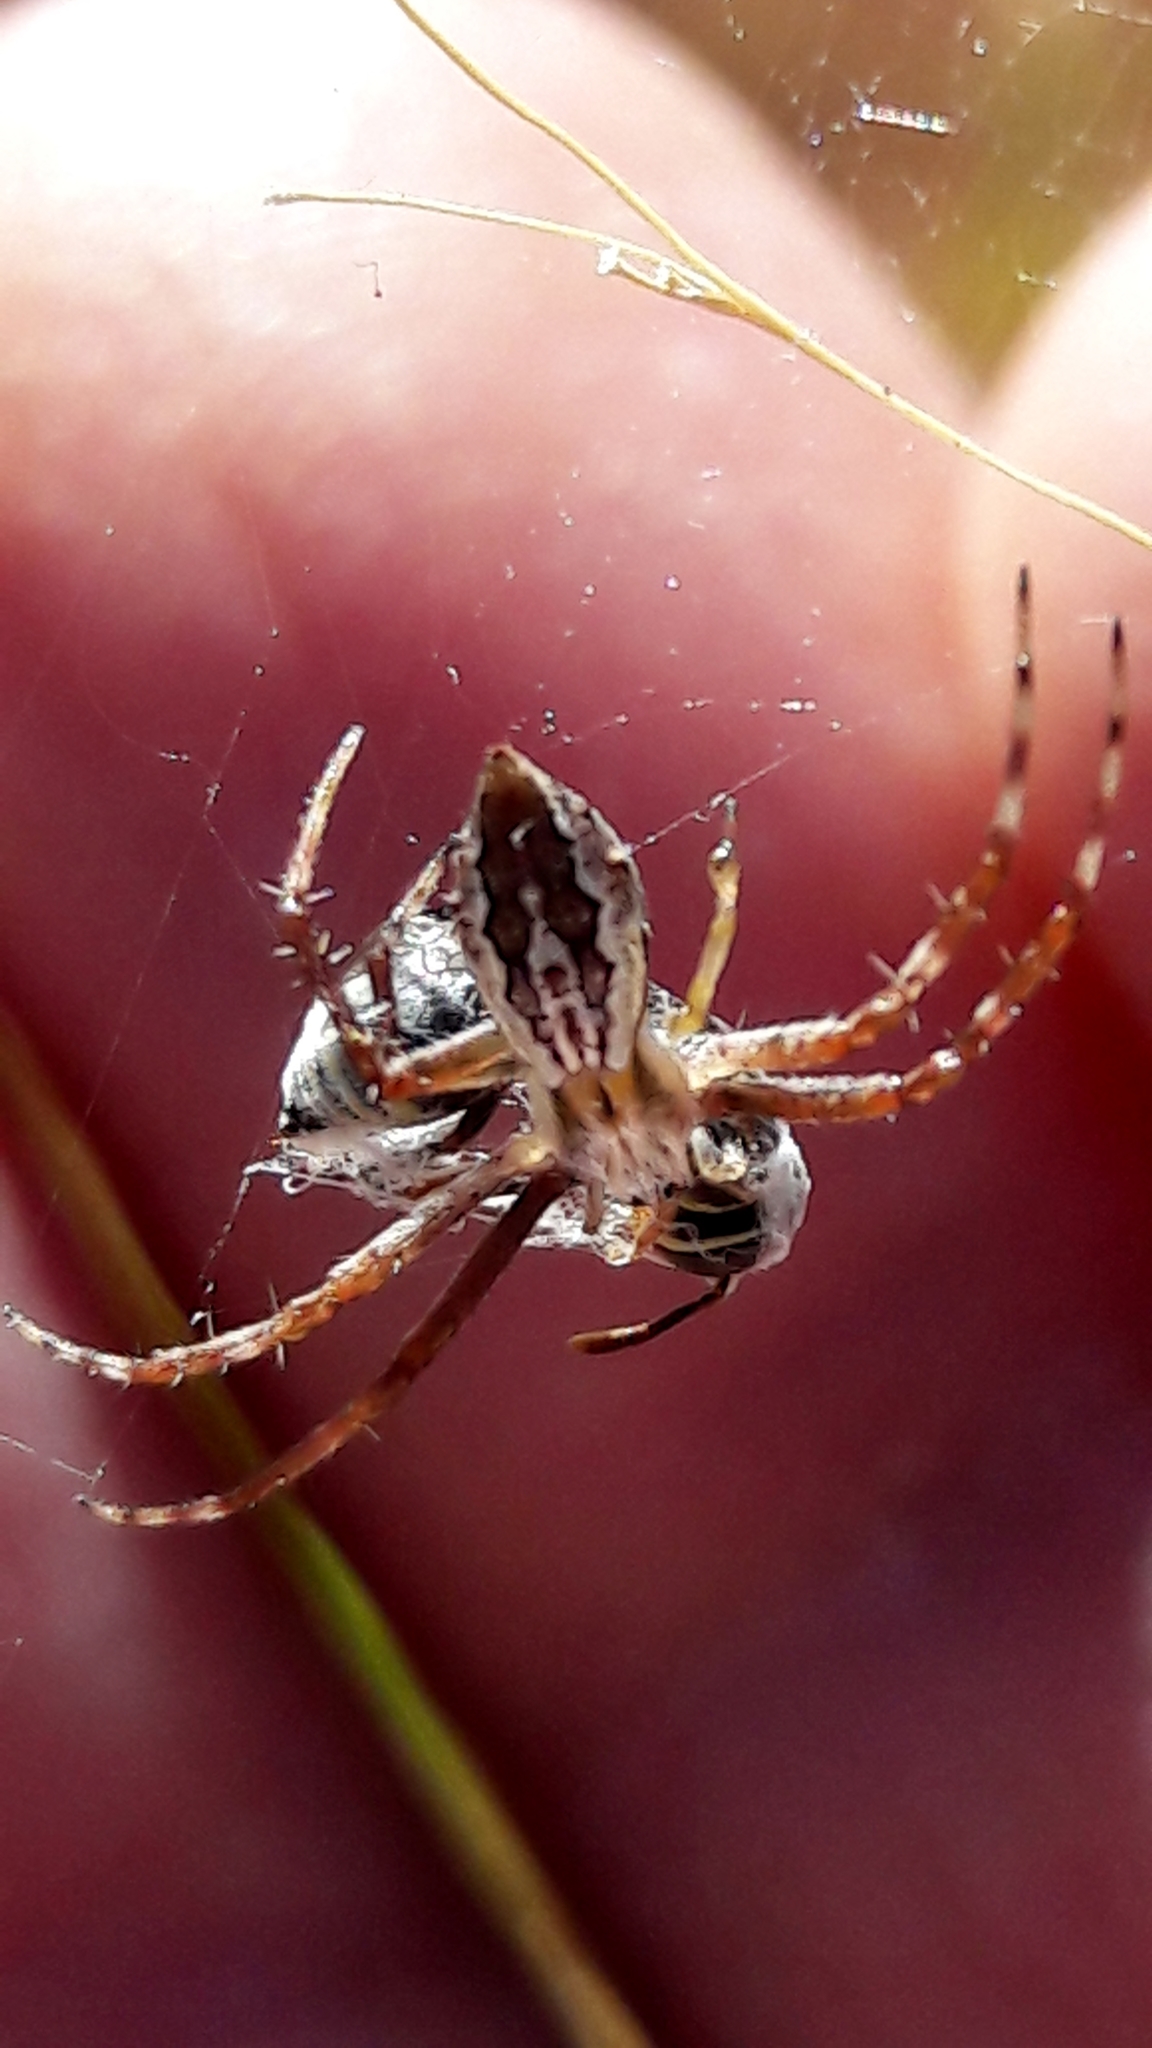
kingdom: Animalia
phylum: Arthropoda
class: Arachnida
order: Araneae
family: Araneidae
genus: Argiope
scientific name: Argiope argentata
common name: Orb weavers
